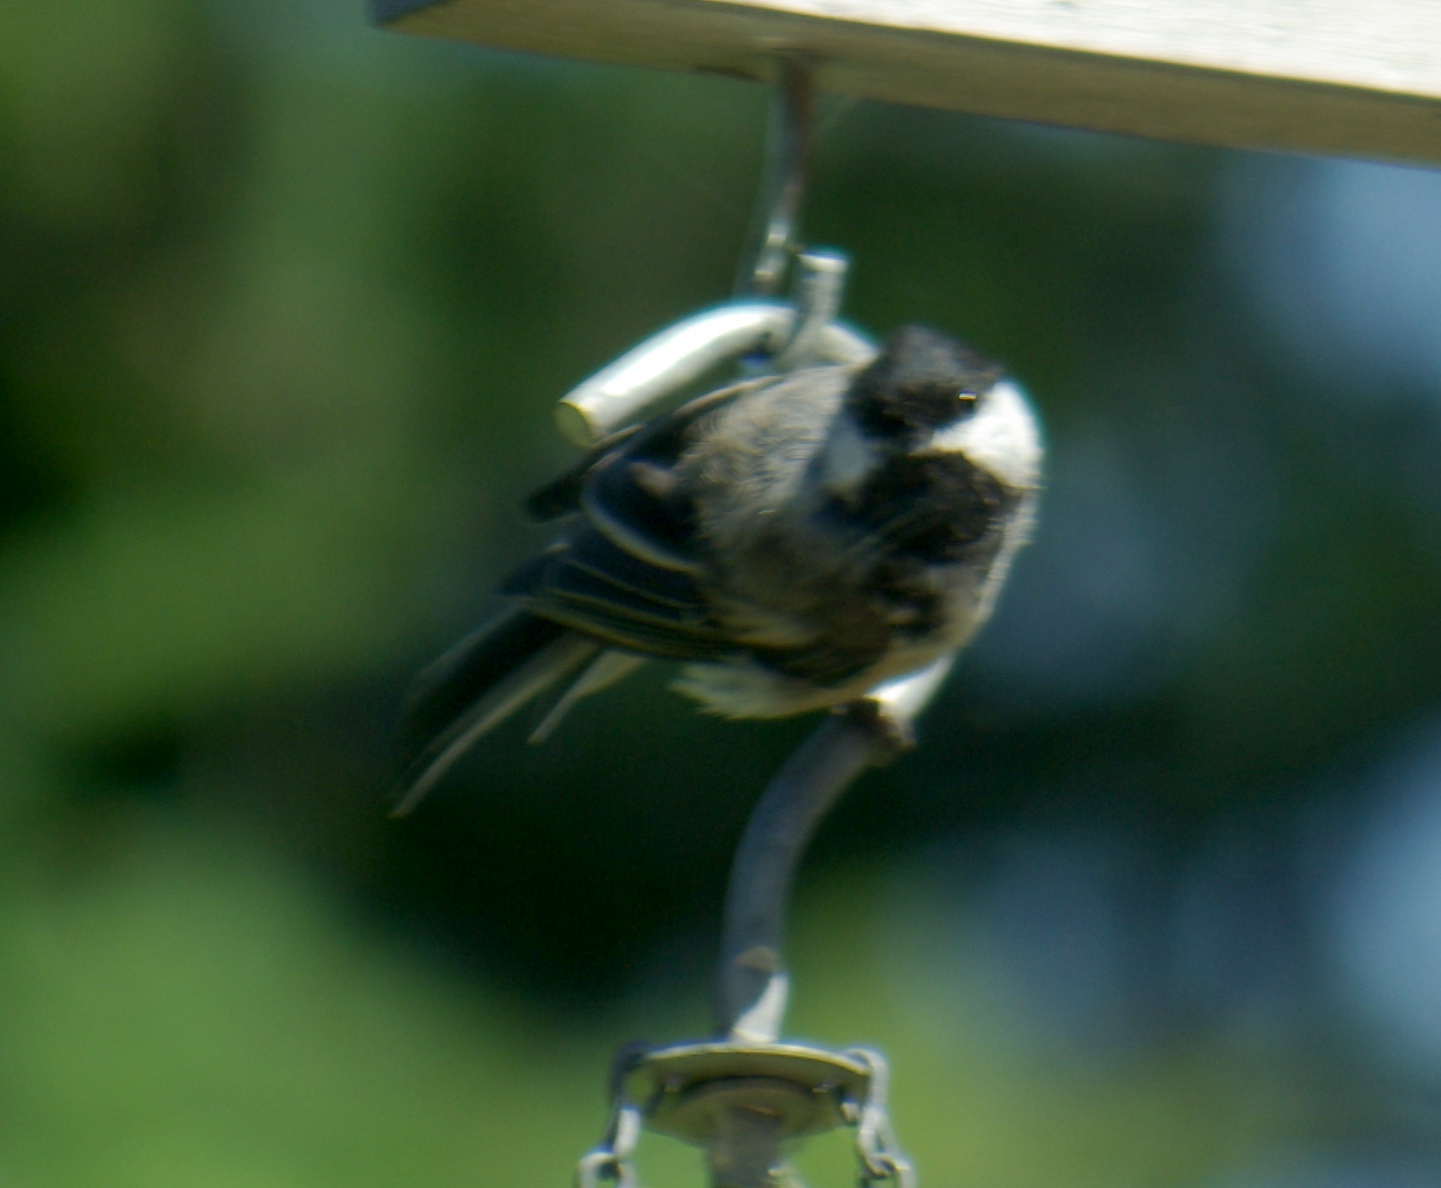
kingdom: Animalia
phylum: Chordata
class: Aves
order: Passeriformes
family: Paridae
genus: Poecile
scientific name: Poecile atricapillus
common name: Black-capped chickadee
